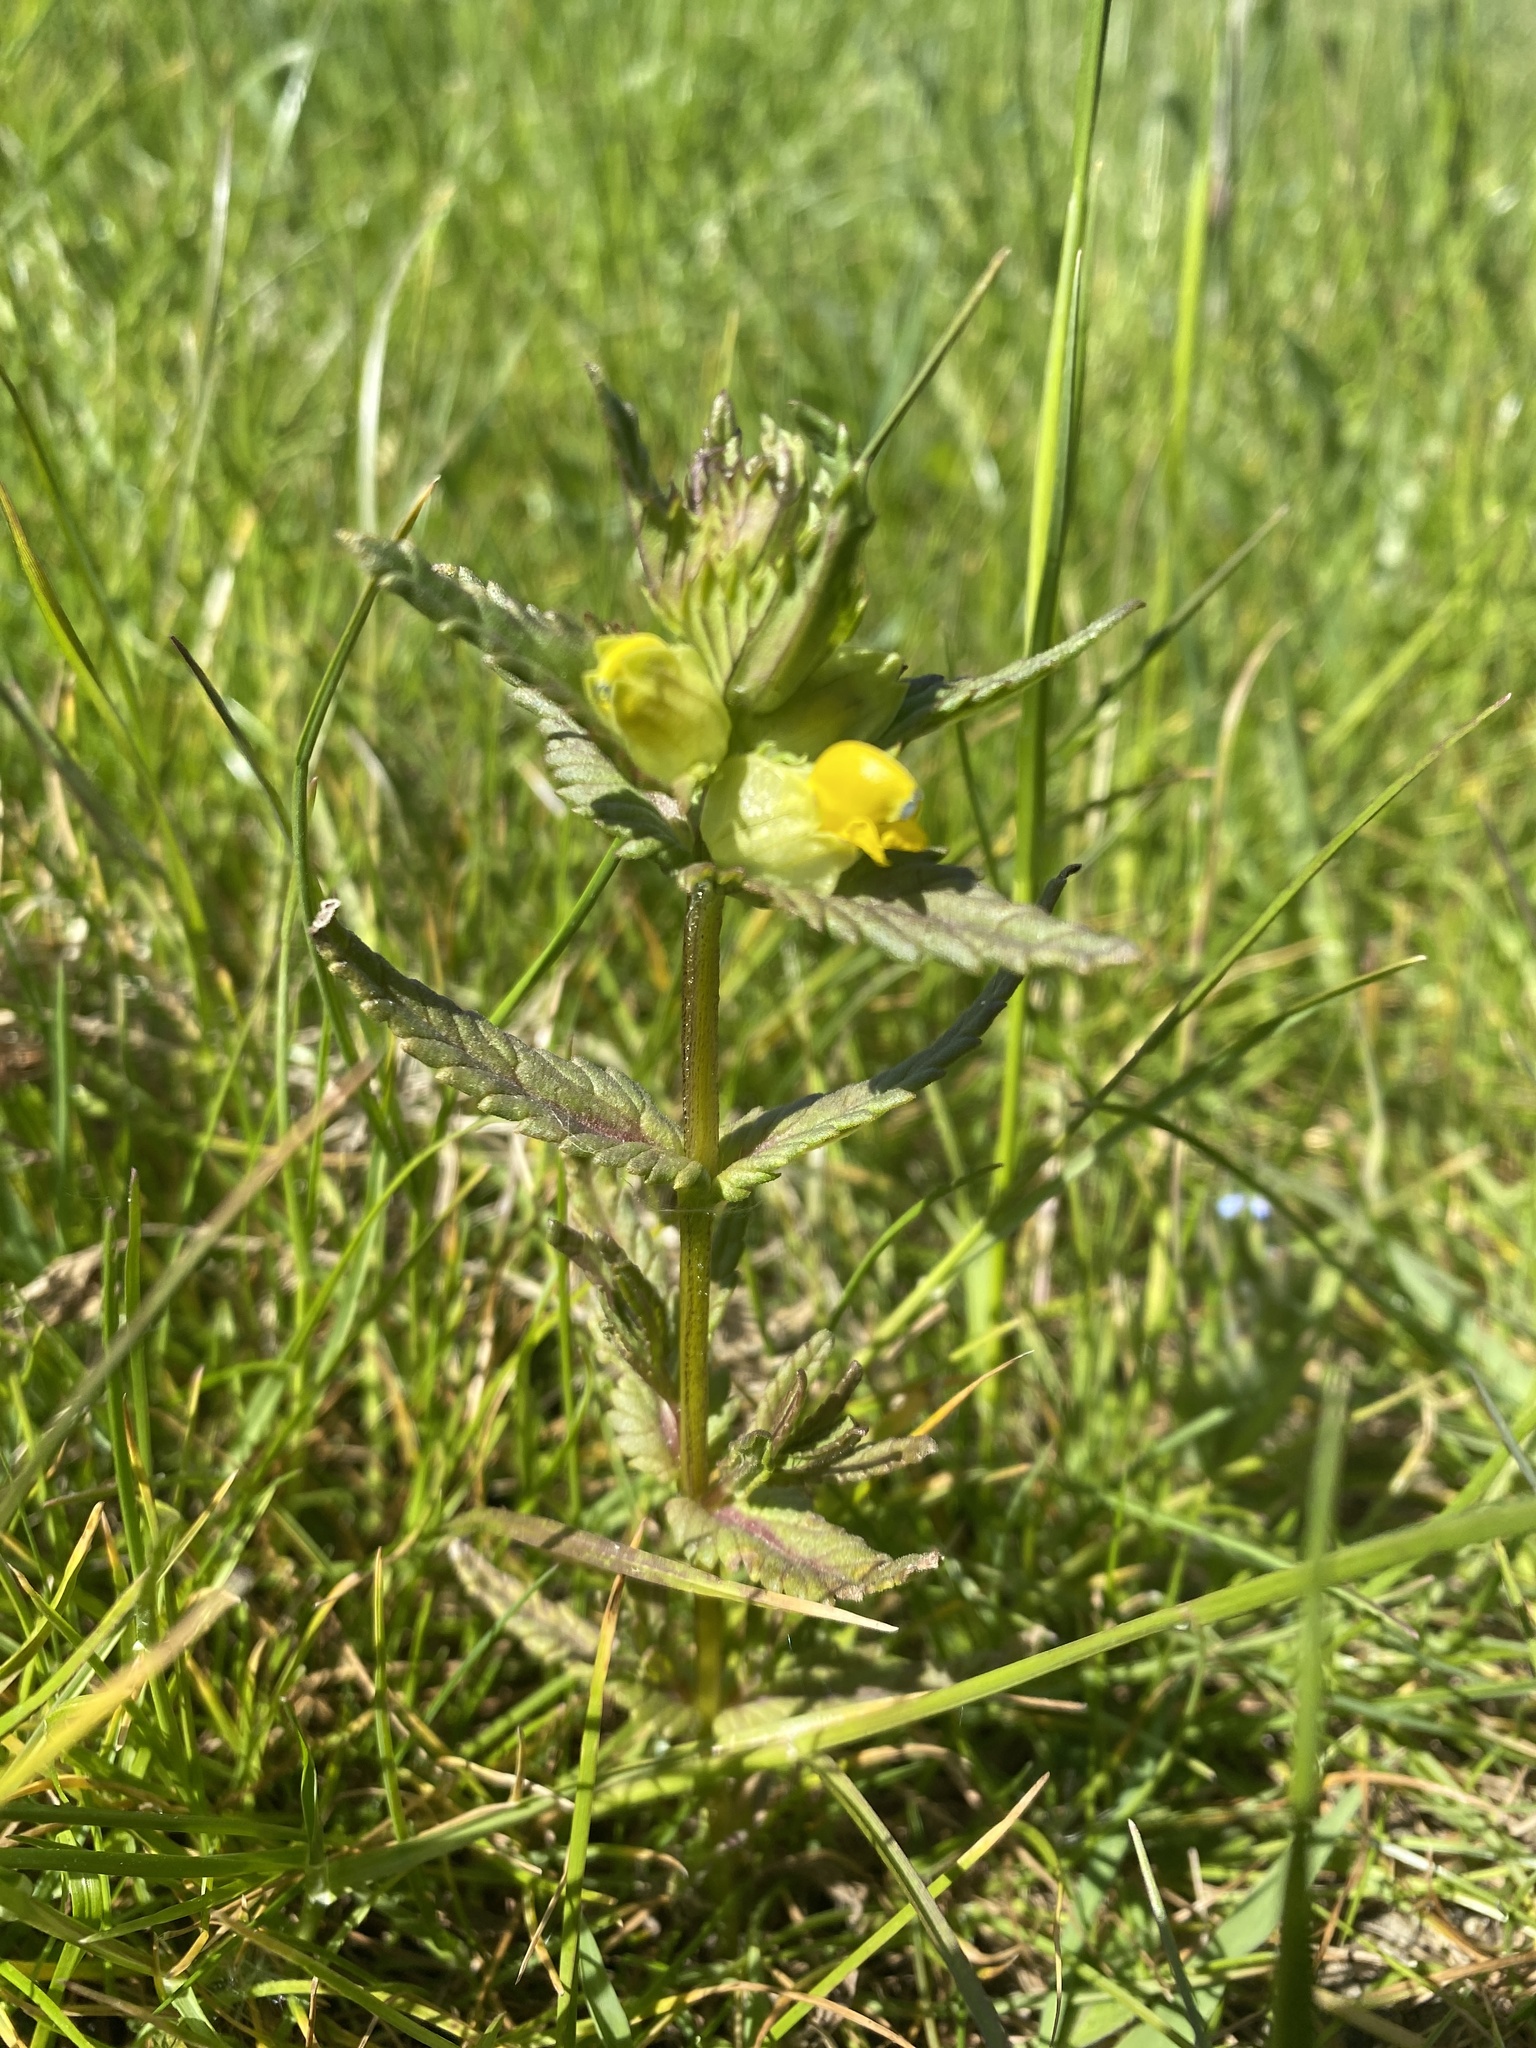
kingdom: Plantae
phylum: Tracheophyta
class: Magnoliopsida
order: Lamiales
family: Orobanchaceae
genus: Rhinanthus
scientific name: Rhinanthus minor
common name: Yellow-rattle
